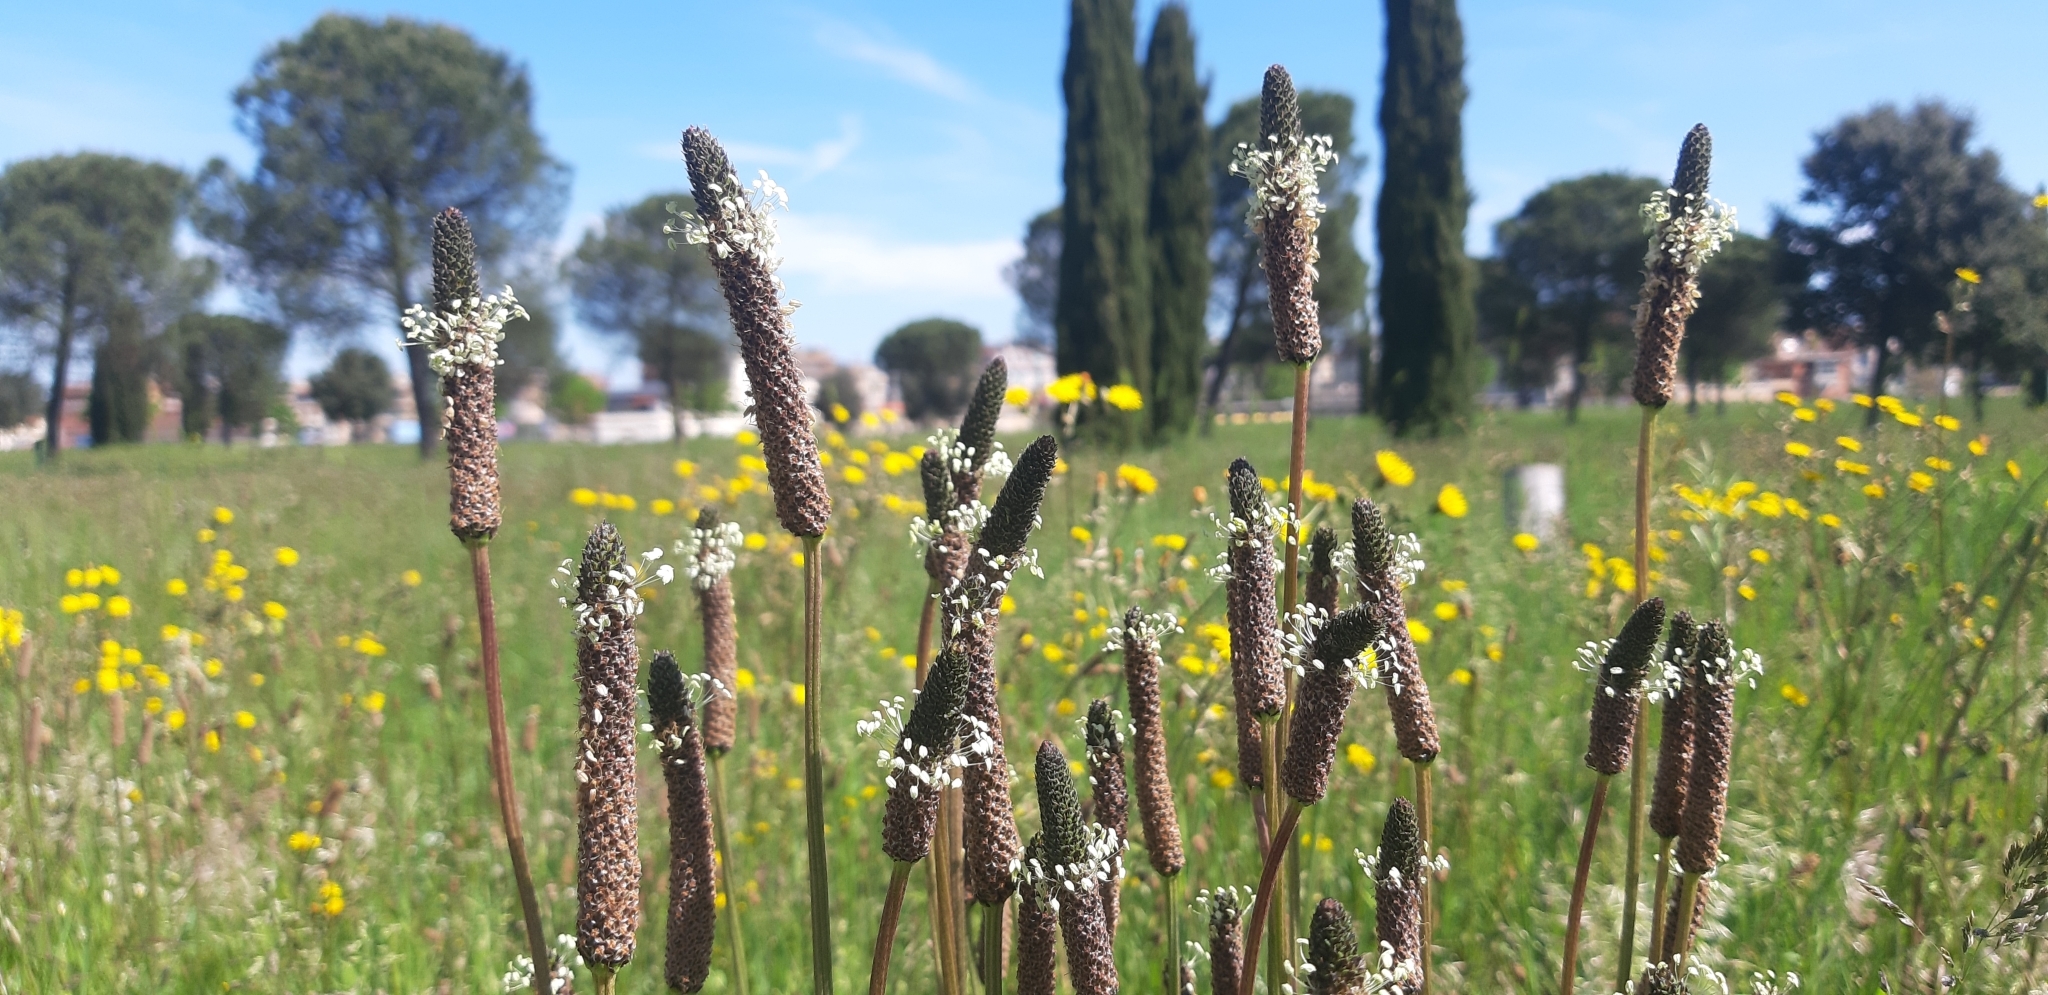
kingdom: Plantae
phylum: Tracheophyta
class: Magnoliopsida
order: Lamiales
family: Plantaginaceae
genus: Plantago
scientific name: Plantago lanceolata
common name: Ribwort plantain
